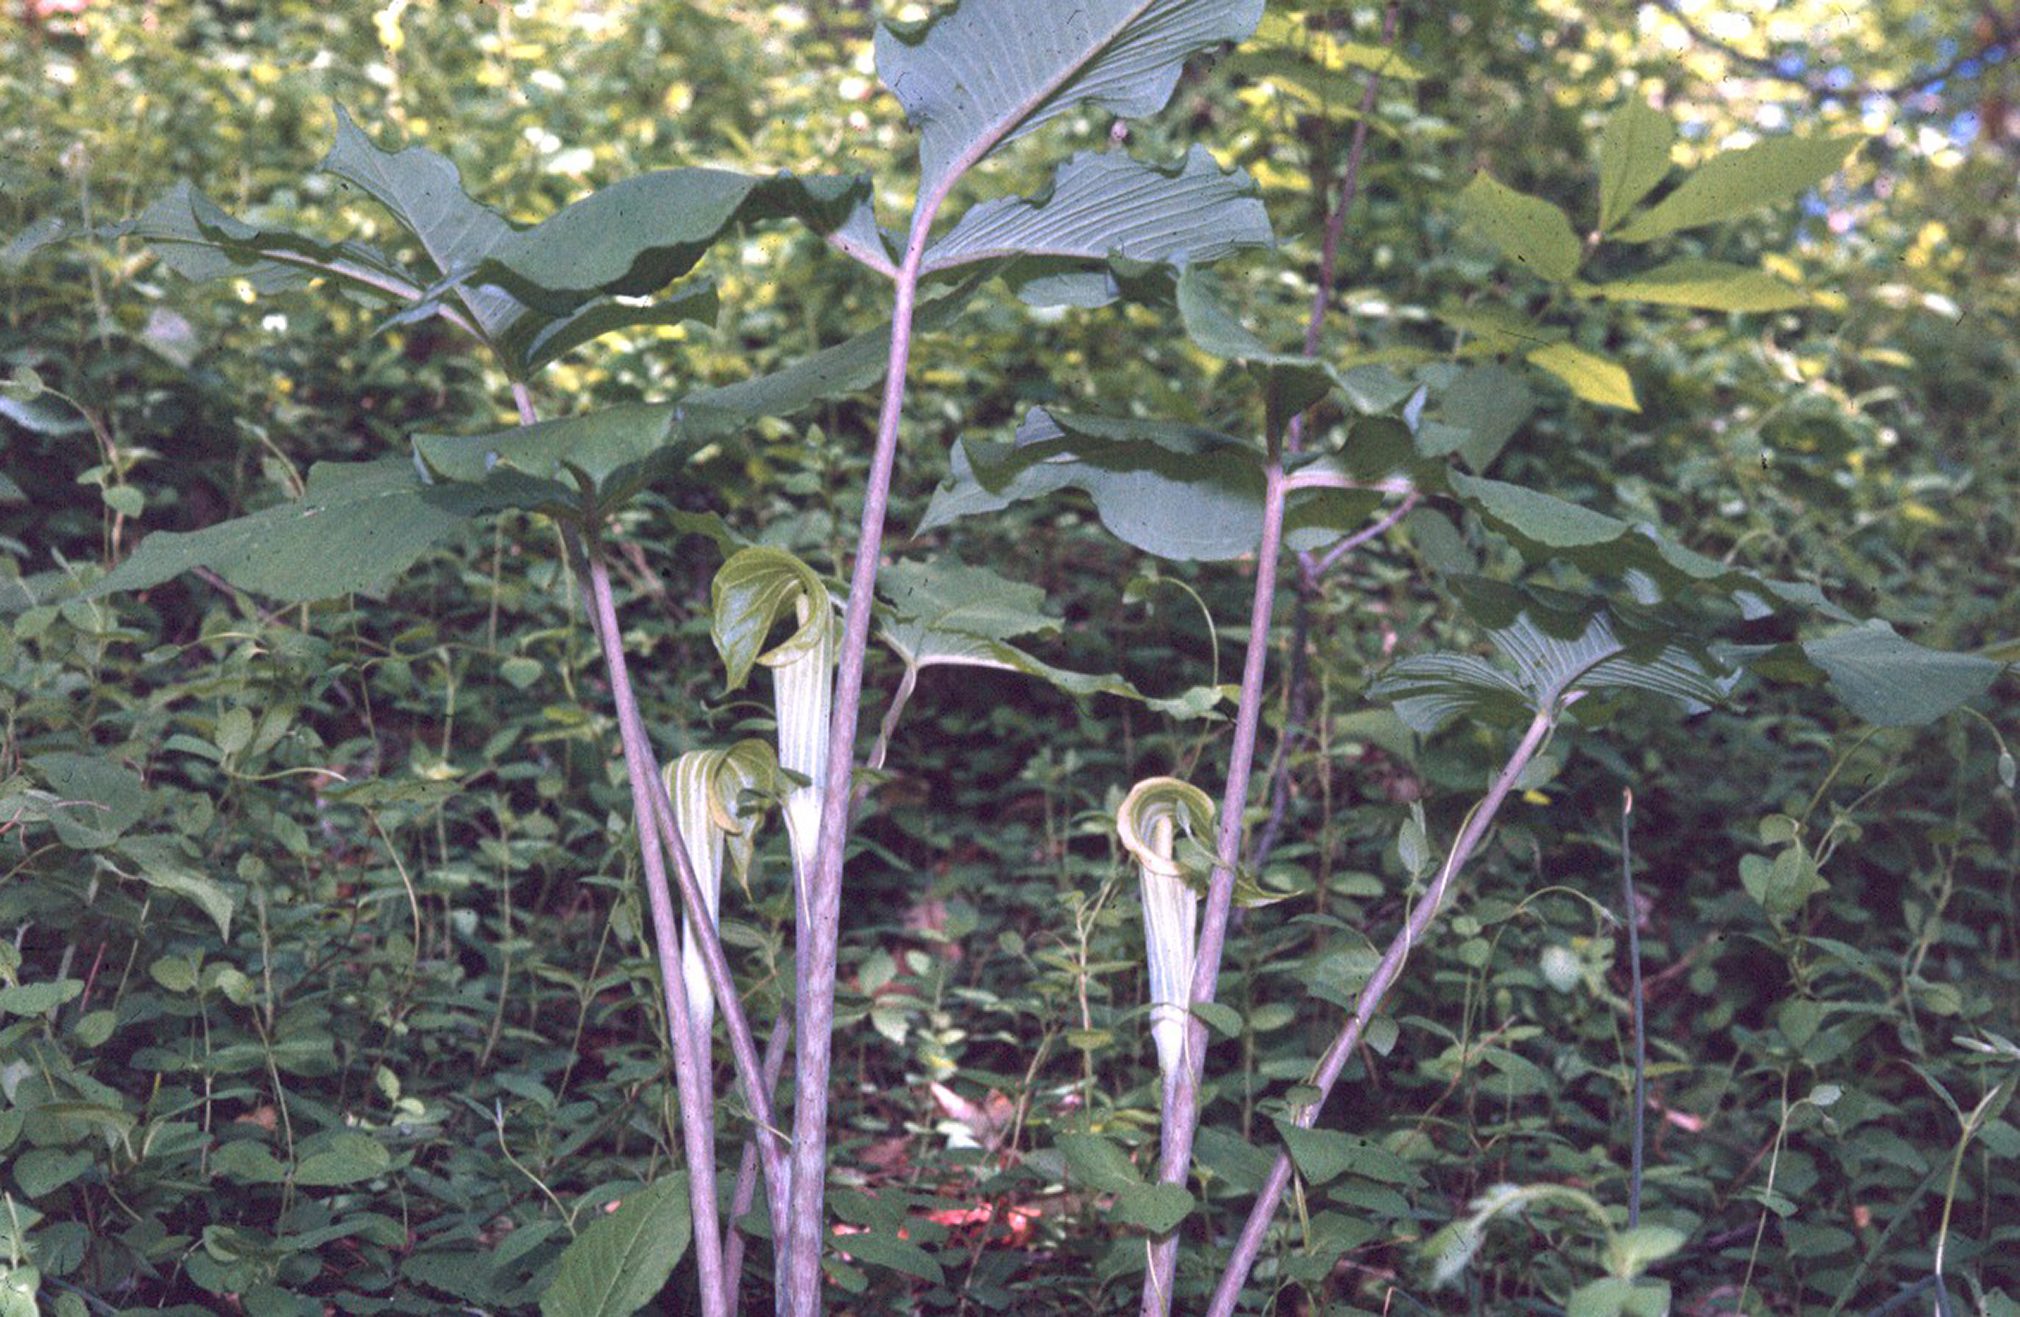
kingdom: Plantae
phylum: Tracheophyta
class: Liliopsida
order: Alismatales
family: Araceae
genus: Arisaema
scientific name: Arisaema triphyllum
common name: Jack-in-the-pulpit
